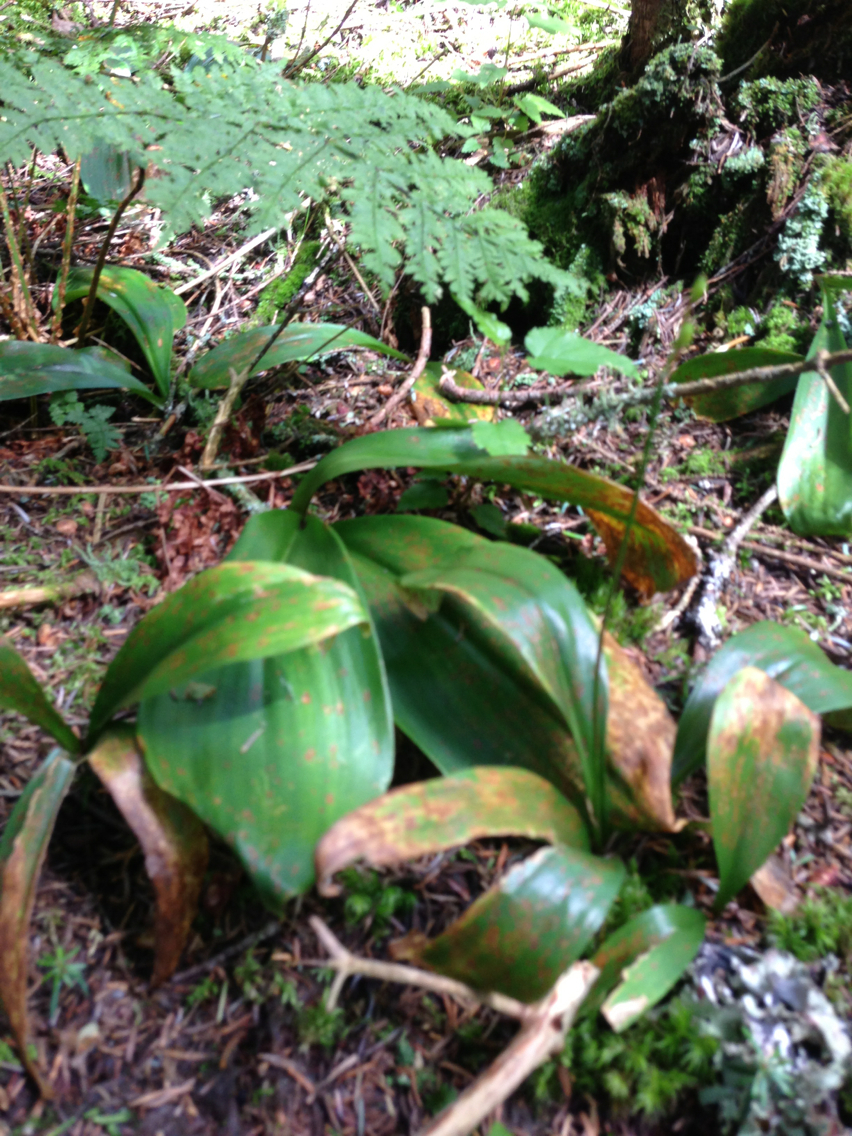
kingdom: Plantae
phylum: Tracheophyta
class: Liliopsida
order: Liliales
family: Liliaceae
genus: Clintonia
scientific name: Clintonia borealis
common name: Yellow clintonia
